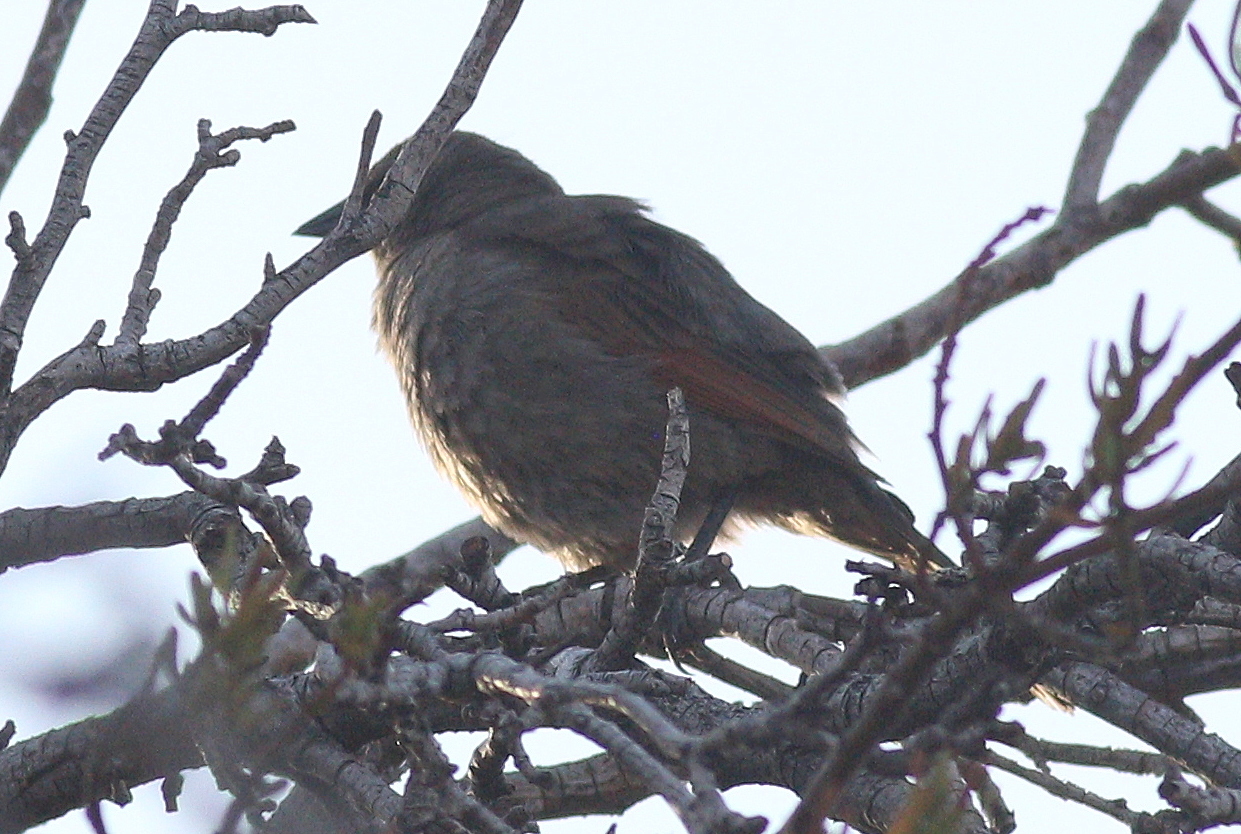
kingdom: Animalia
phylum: Chordata
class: Aves
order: Passeriformes
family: Icteridae
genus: Agelaioides
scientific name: Agelaioides badius
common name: Baywing
